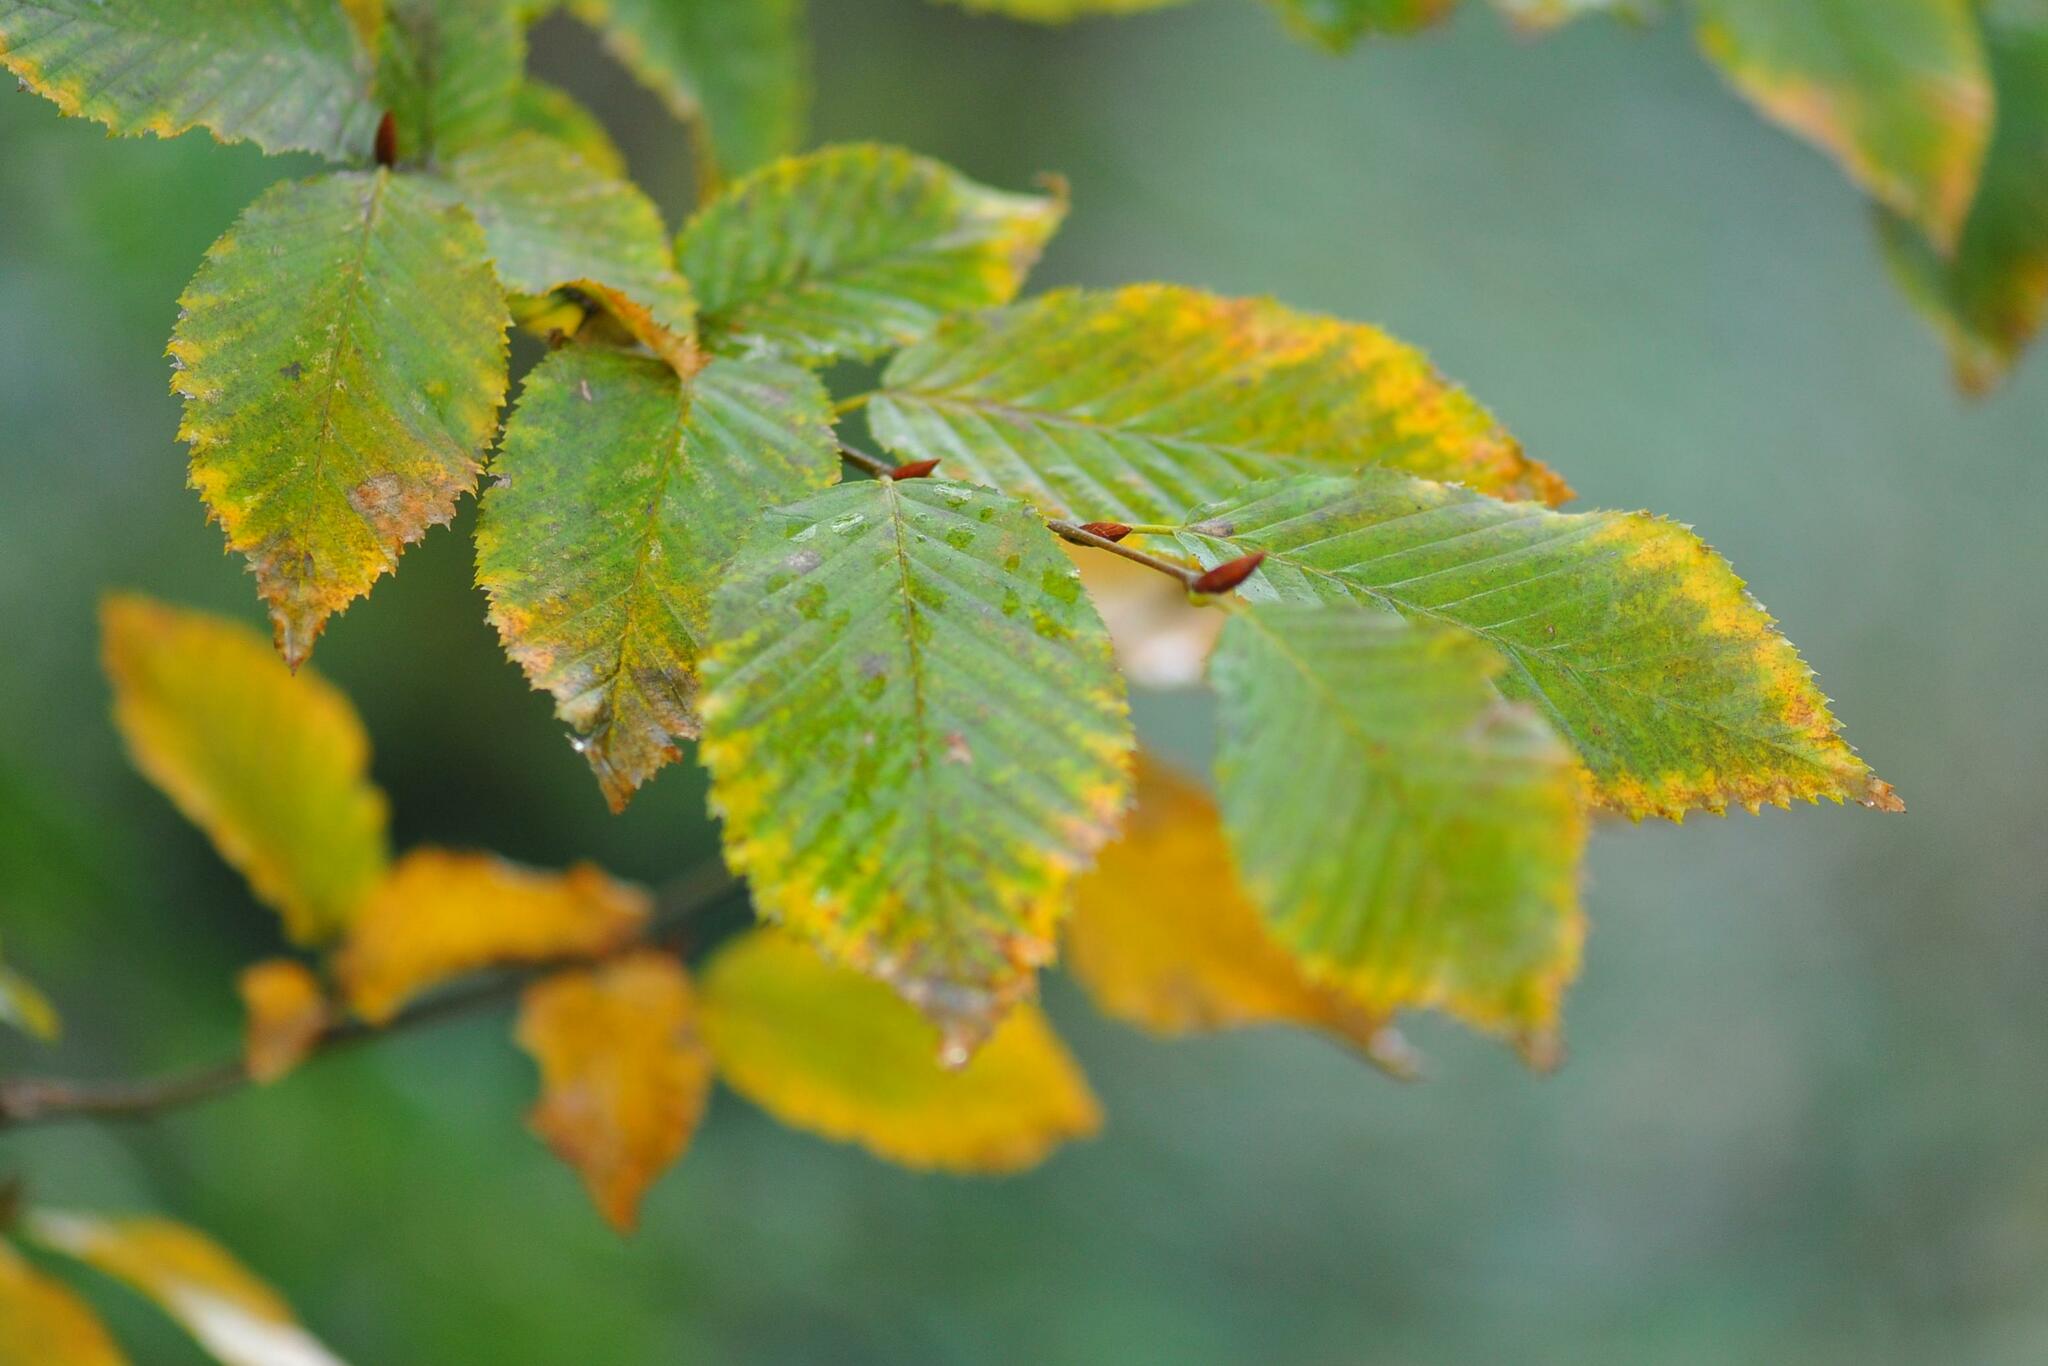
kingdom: Plantae
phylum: Tracheophyta
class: Magnoliopsida
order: Fagales
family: Betulaceae
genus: Carpinus
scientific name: Carpinus betulus
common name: Hornbeam
